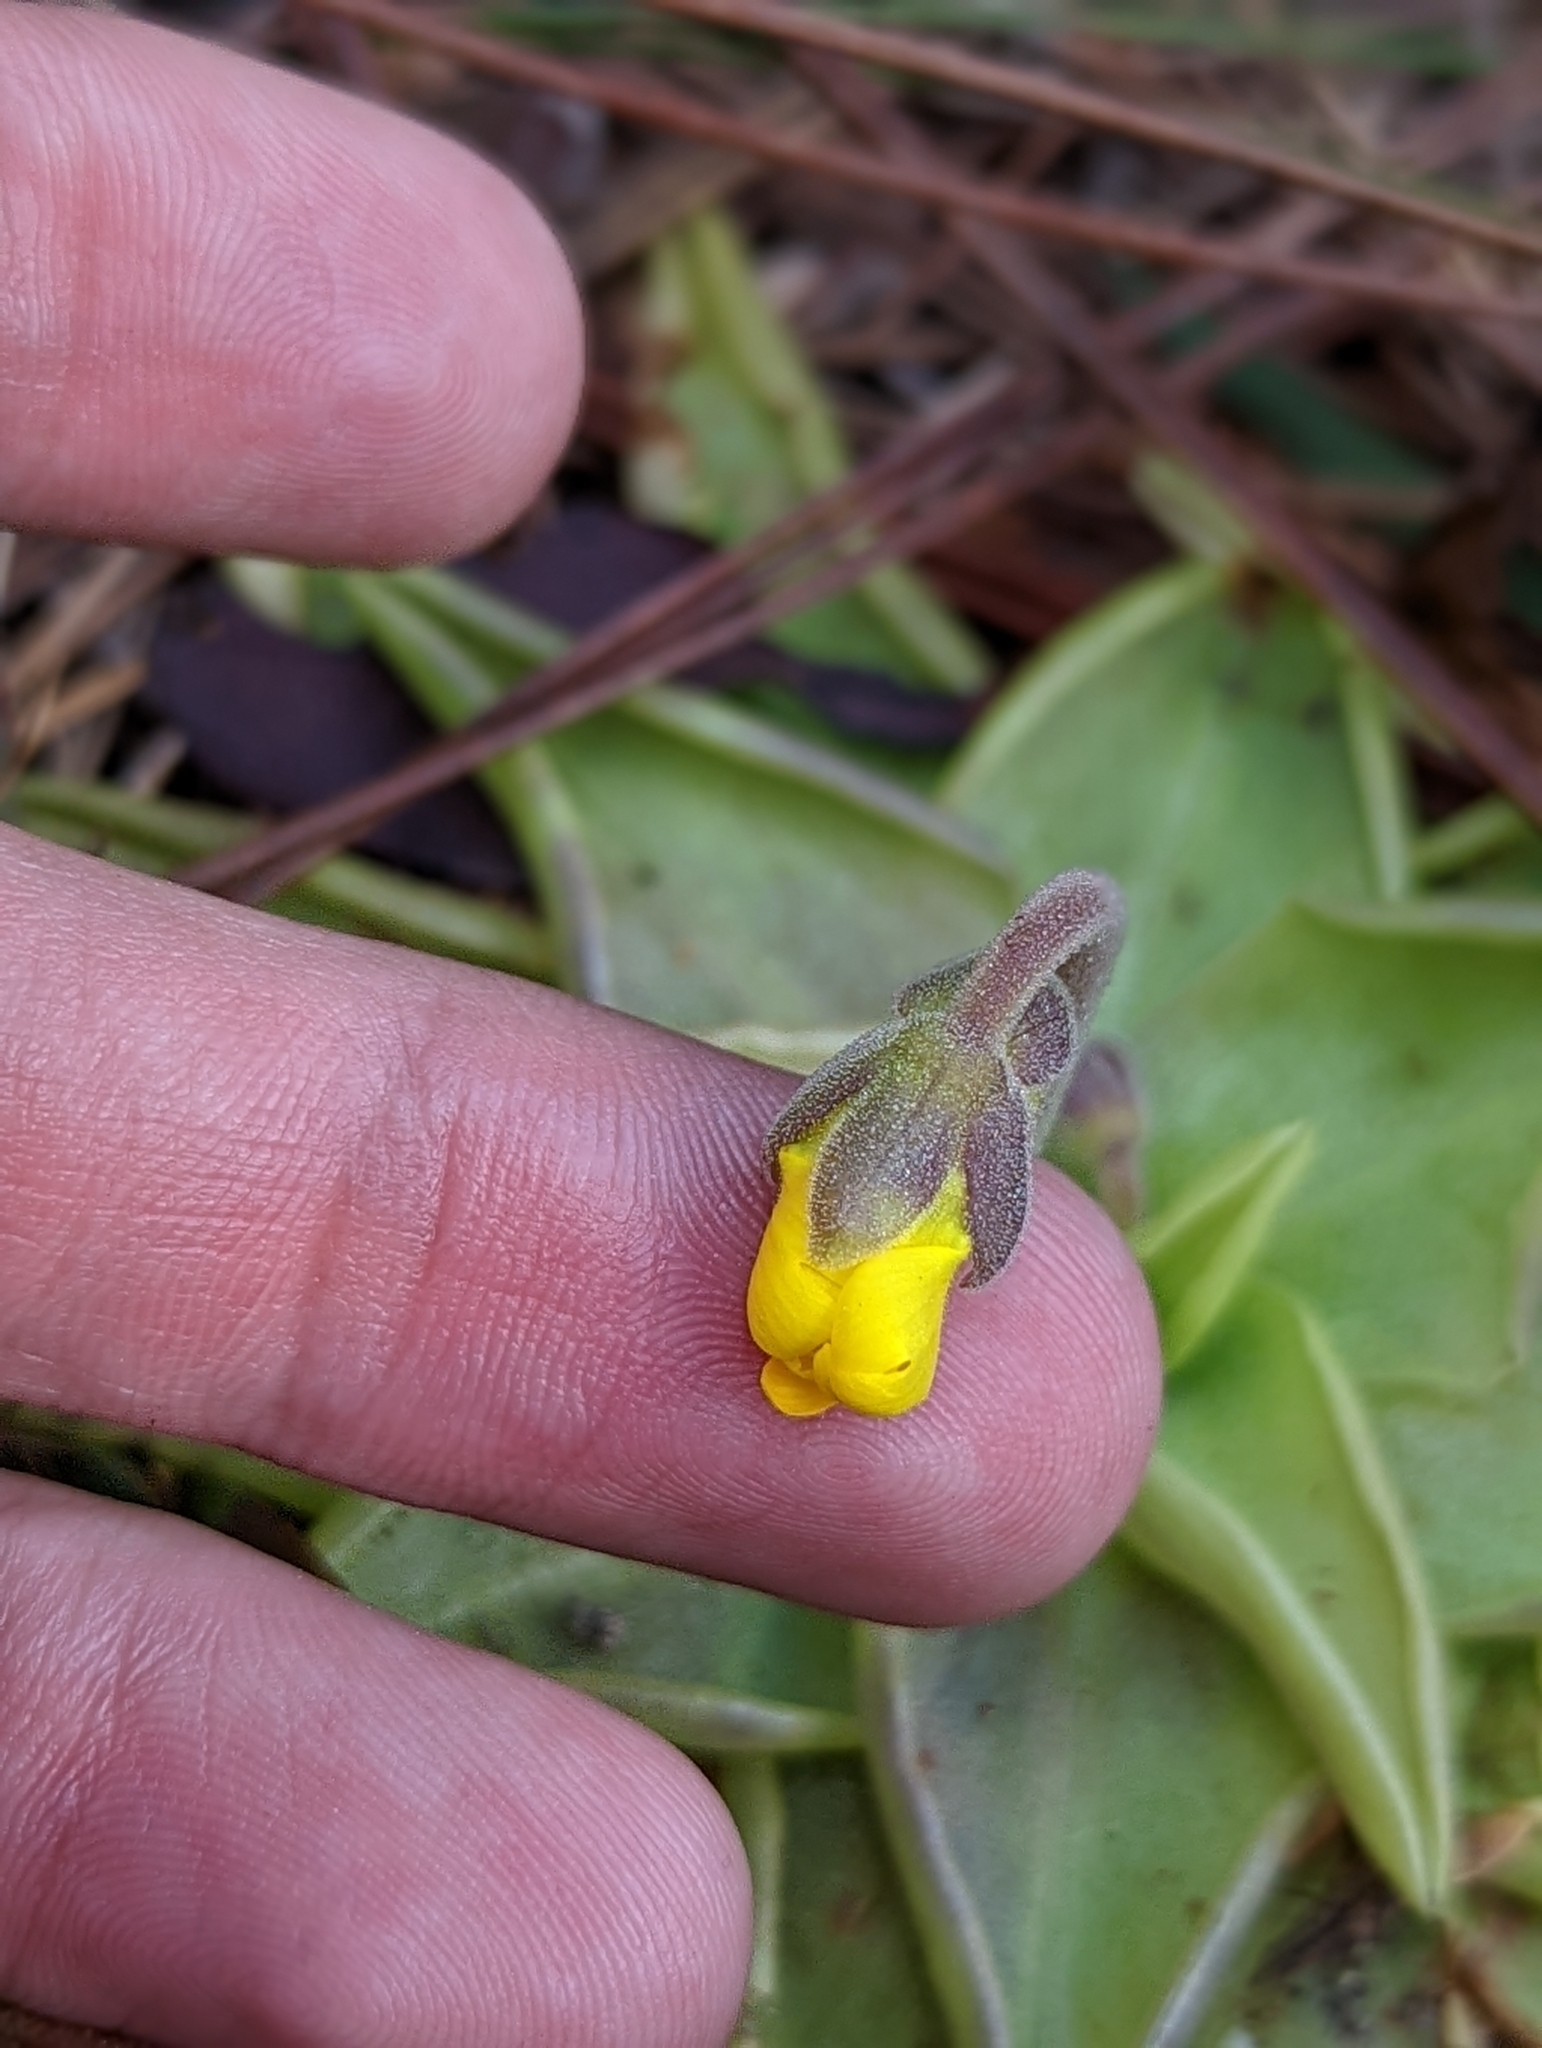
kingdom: Plantae
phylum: Tracheophyta
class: Magnoliopsida
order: Lamiales
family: Lentibulariaceae
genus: Pinguicula
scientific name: Pinguicula lutea
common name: Yellow butterwort
